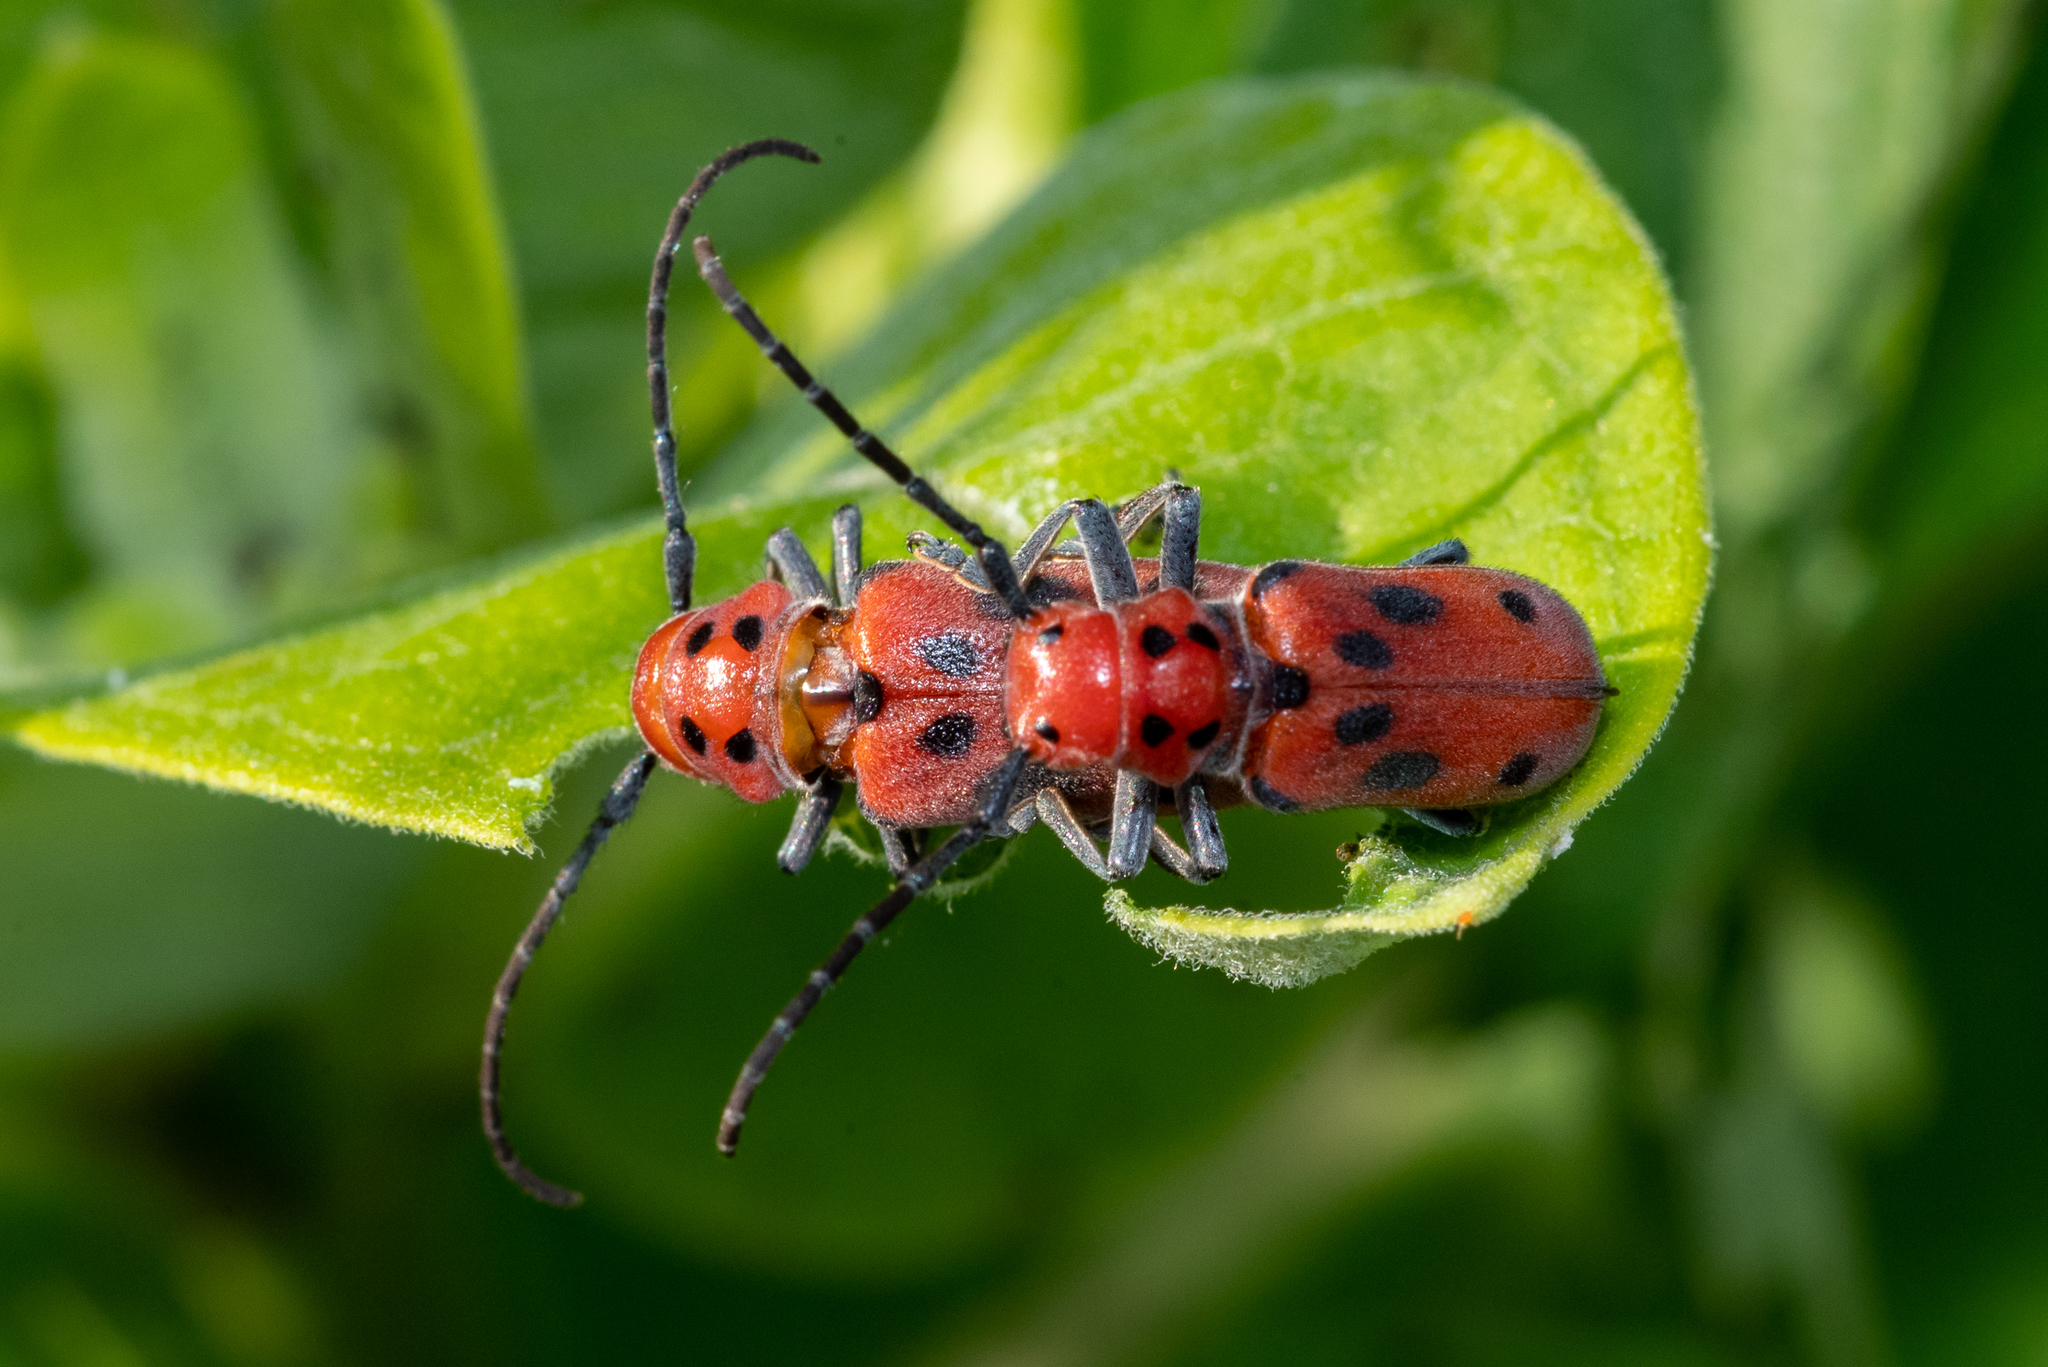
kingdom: Animalia
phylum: Arthropoda
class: Insecta
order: Coleoptera
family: Cerambycidae
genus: Tetraopes
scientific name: Tetraopes tetrophthalmus
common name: Red milkweed beetle
